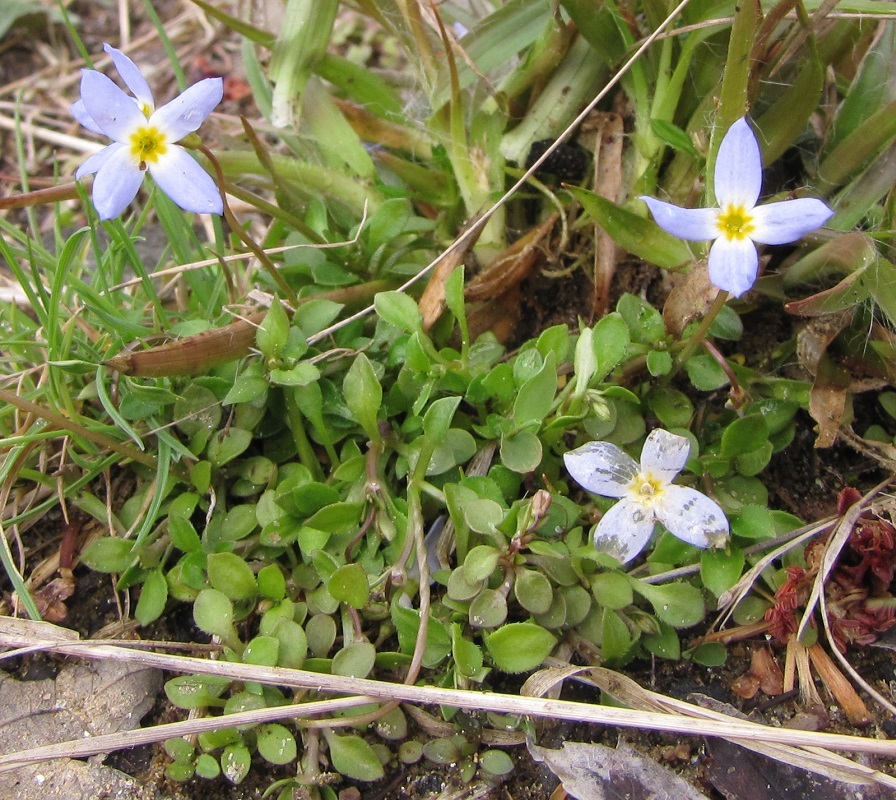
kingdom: Plantae
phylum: Tracheophyta
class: Magnoliopsida
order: Gentianales
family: Rubiaceae
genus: Houstonia
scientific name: Houstonia caerulea
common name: Bluets
